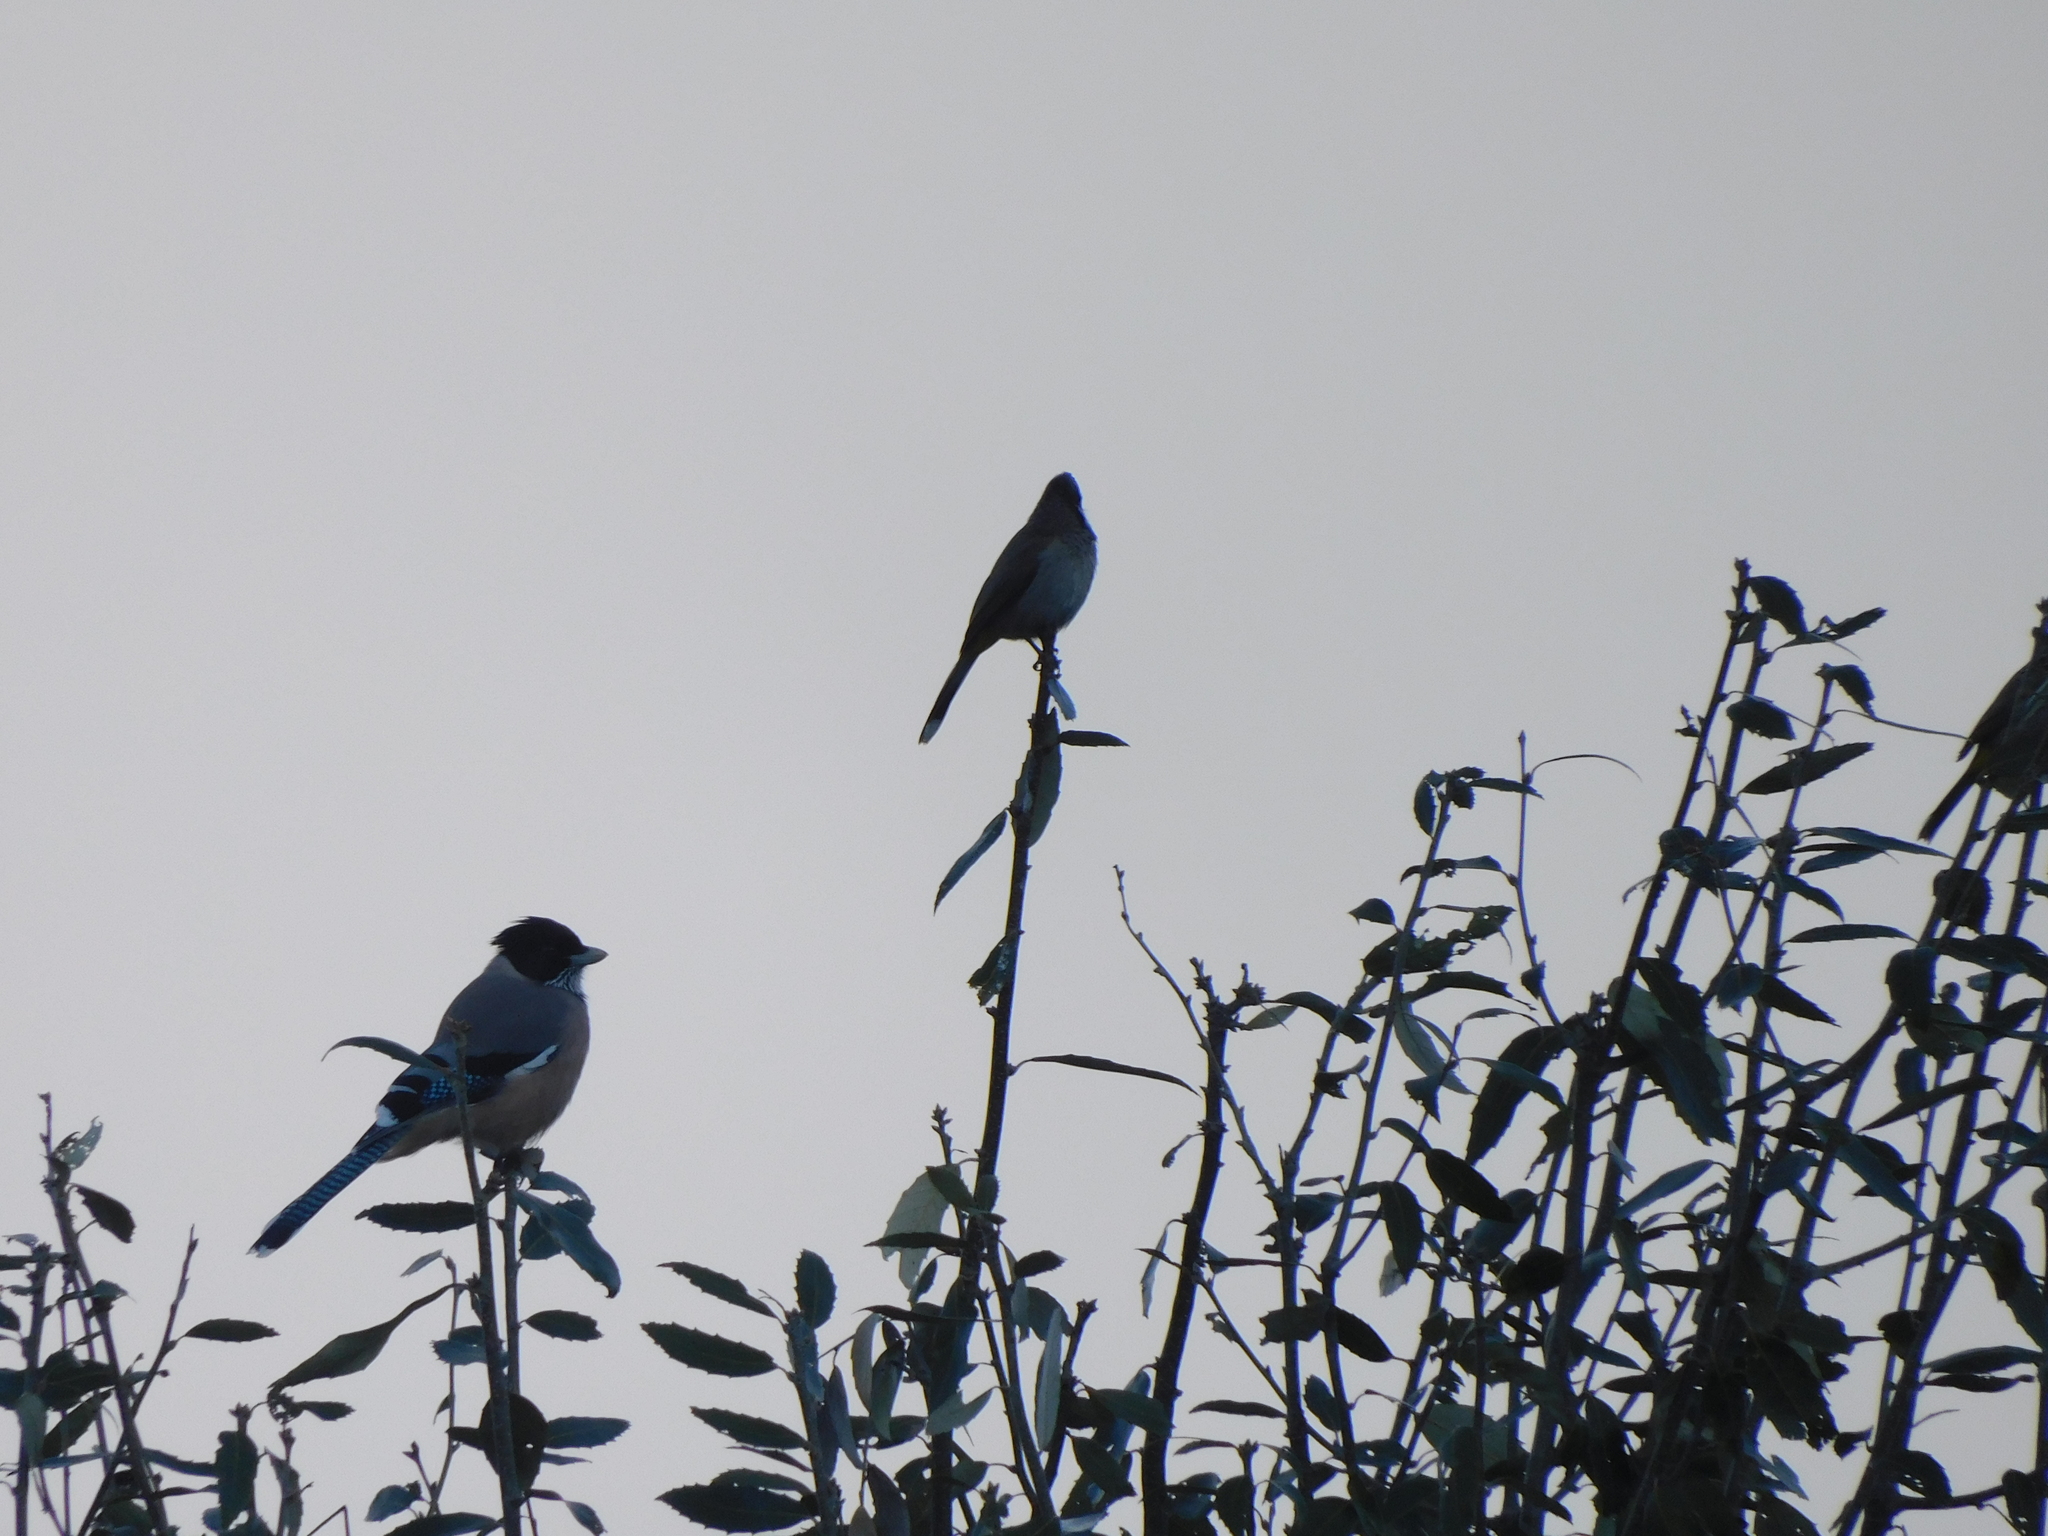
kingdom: Animalia
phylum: Chordata
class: Aves
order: Passeriformes
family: Corvidae
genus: Garrulus
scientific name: Garrulus lanceolatus
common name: Black-headed jay
